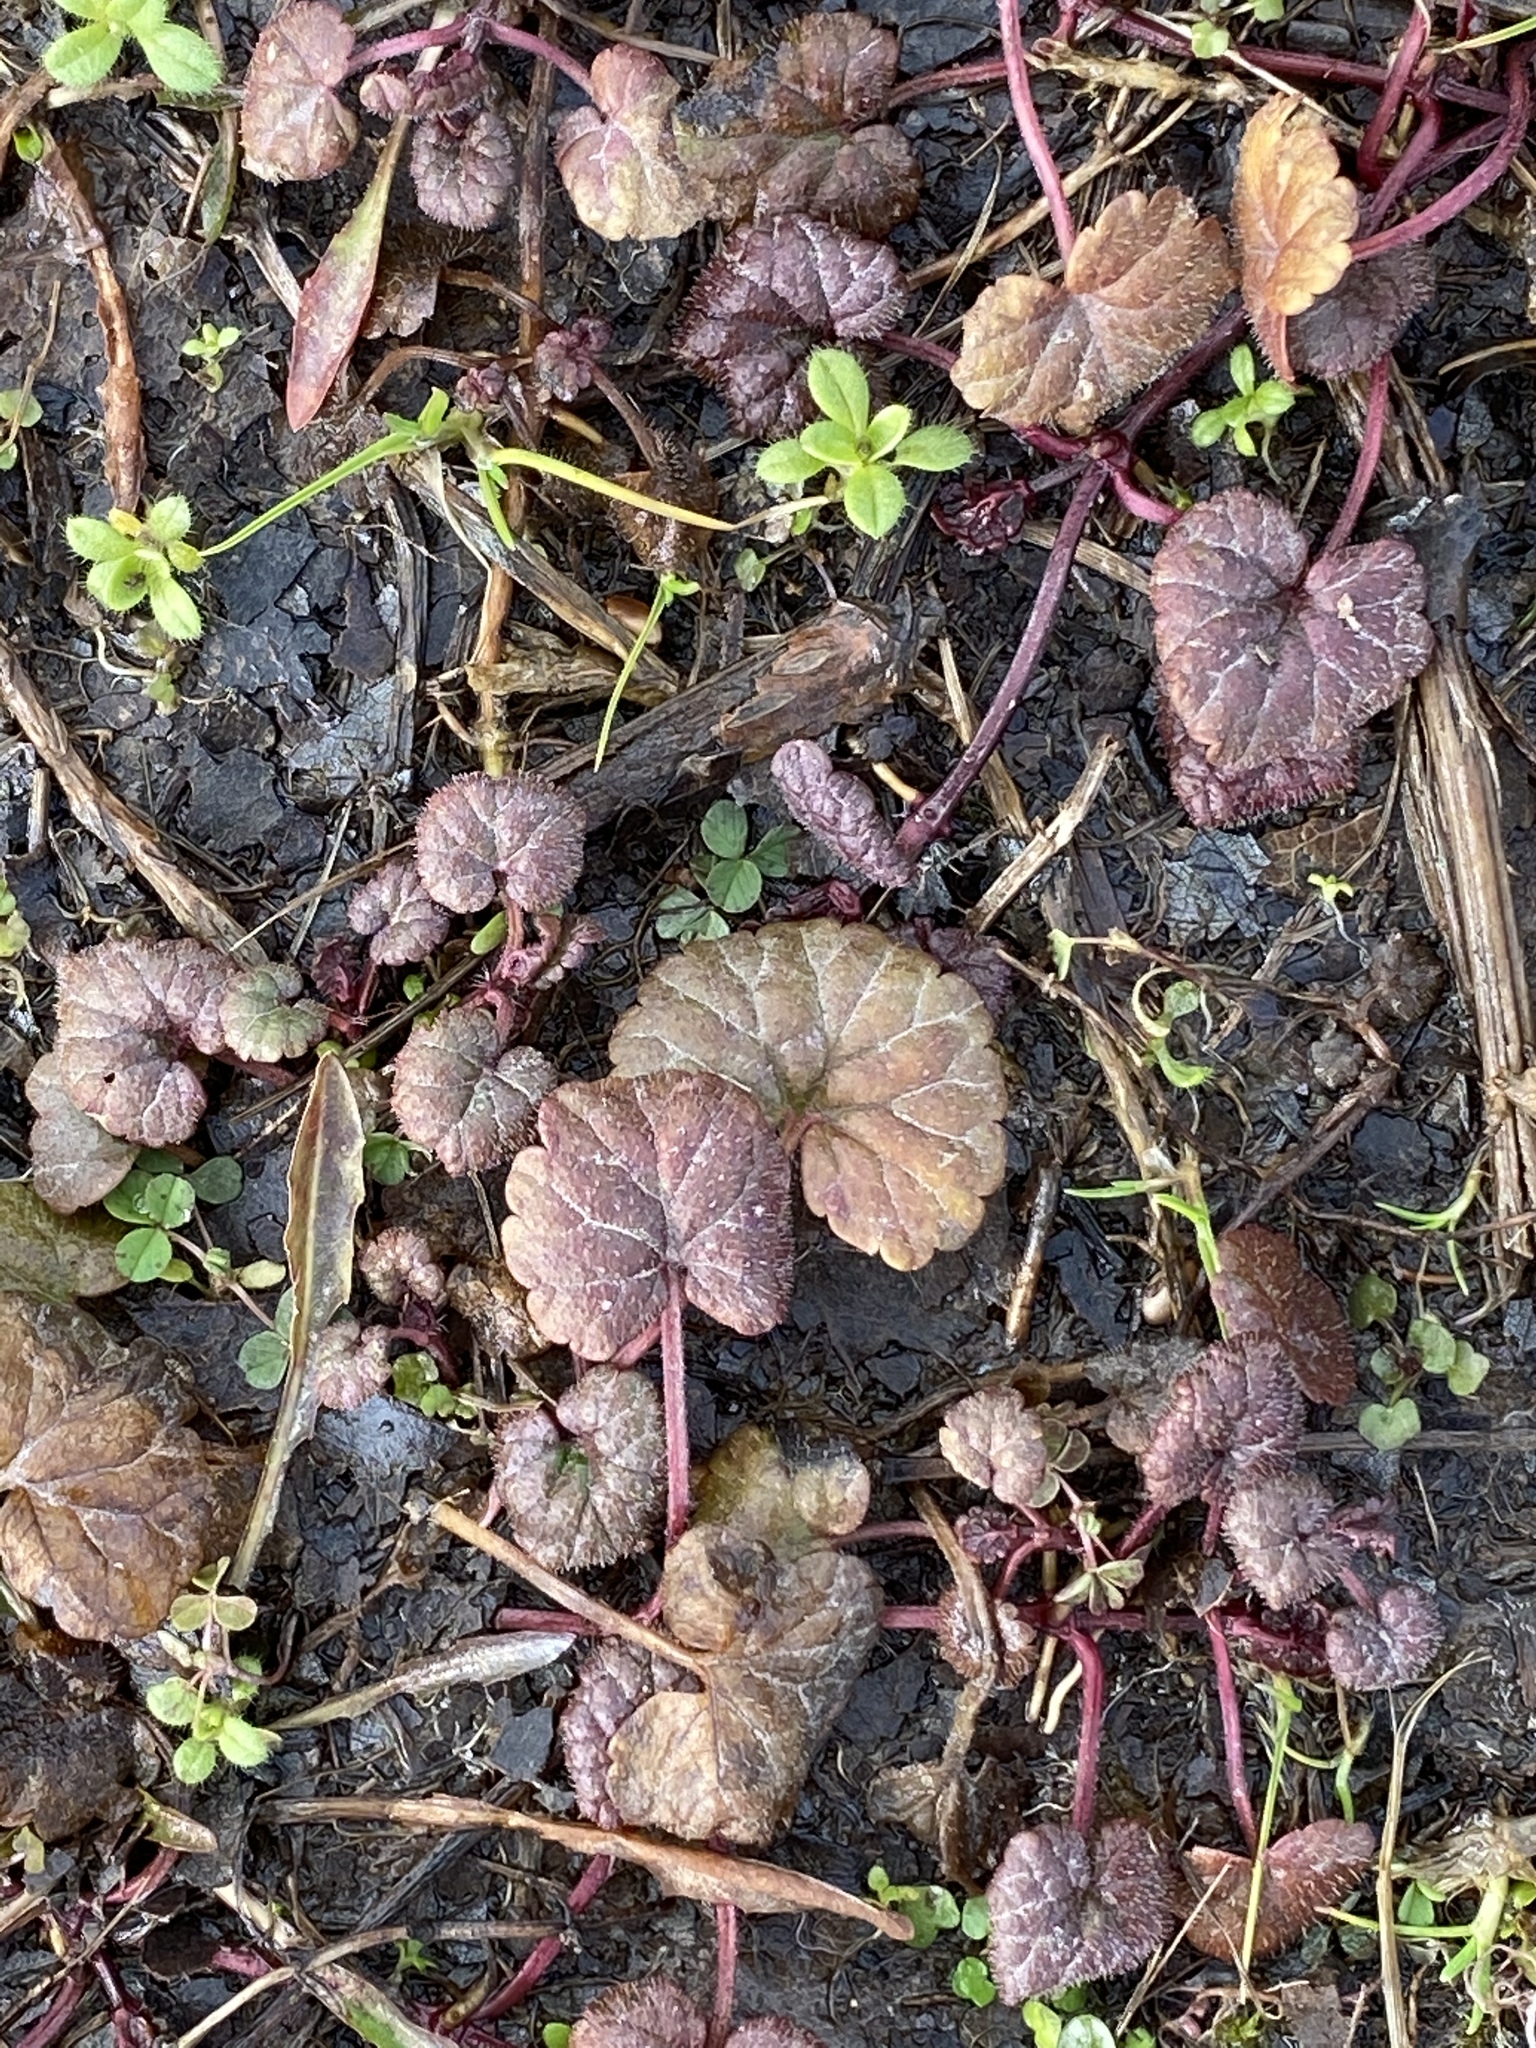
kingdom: Plantae
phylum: Tracheophyta
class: Magnoliopsida
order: Lamiales
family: Lamiaceae
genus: Glechoma
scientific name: Glechoma hederacea
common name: Ground ivy
